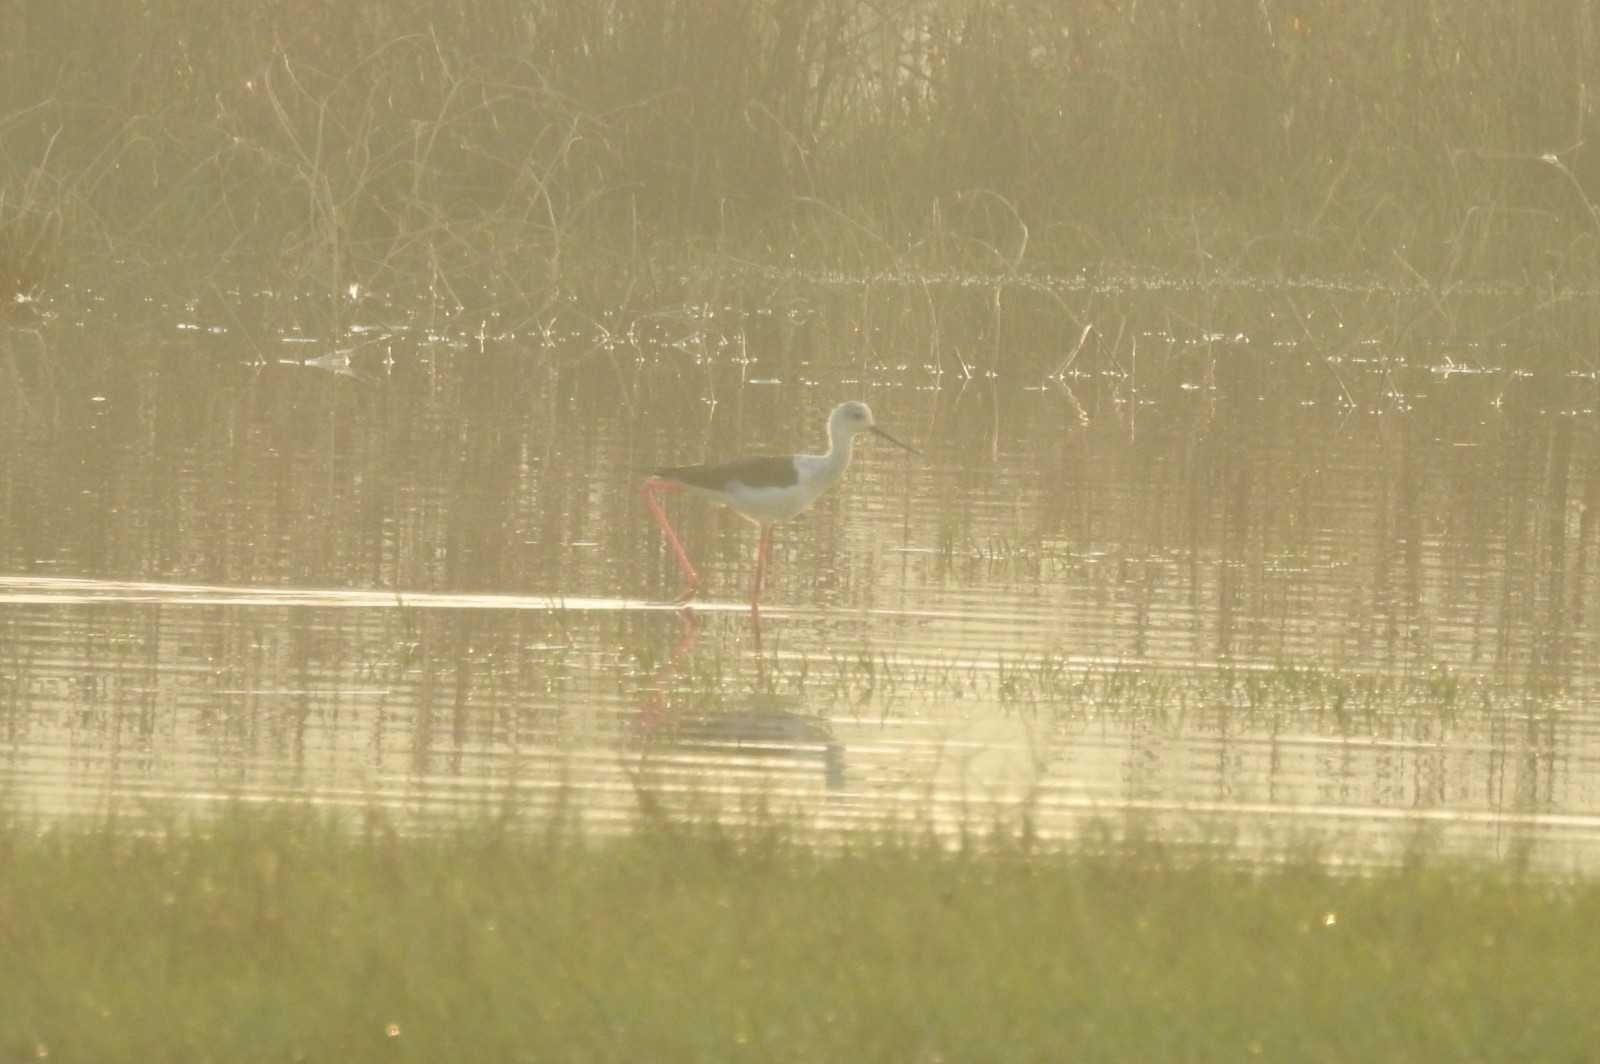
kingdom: Animalia
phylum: Chordata
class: Aves
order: Charadriiformes
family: Recurvirostridae
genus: Himantopus
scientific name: Himantopus himantopus
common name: Black-winged stilt
